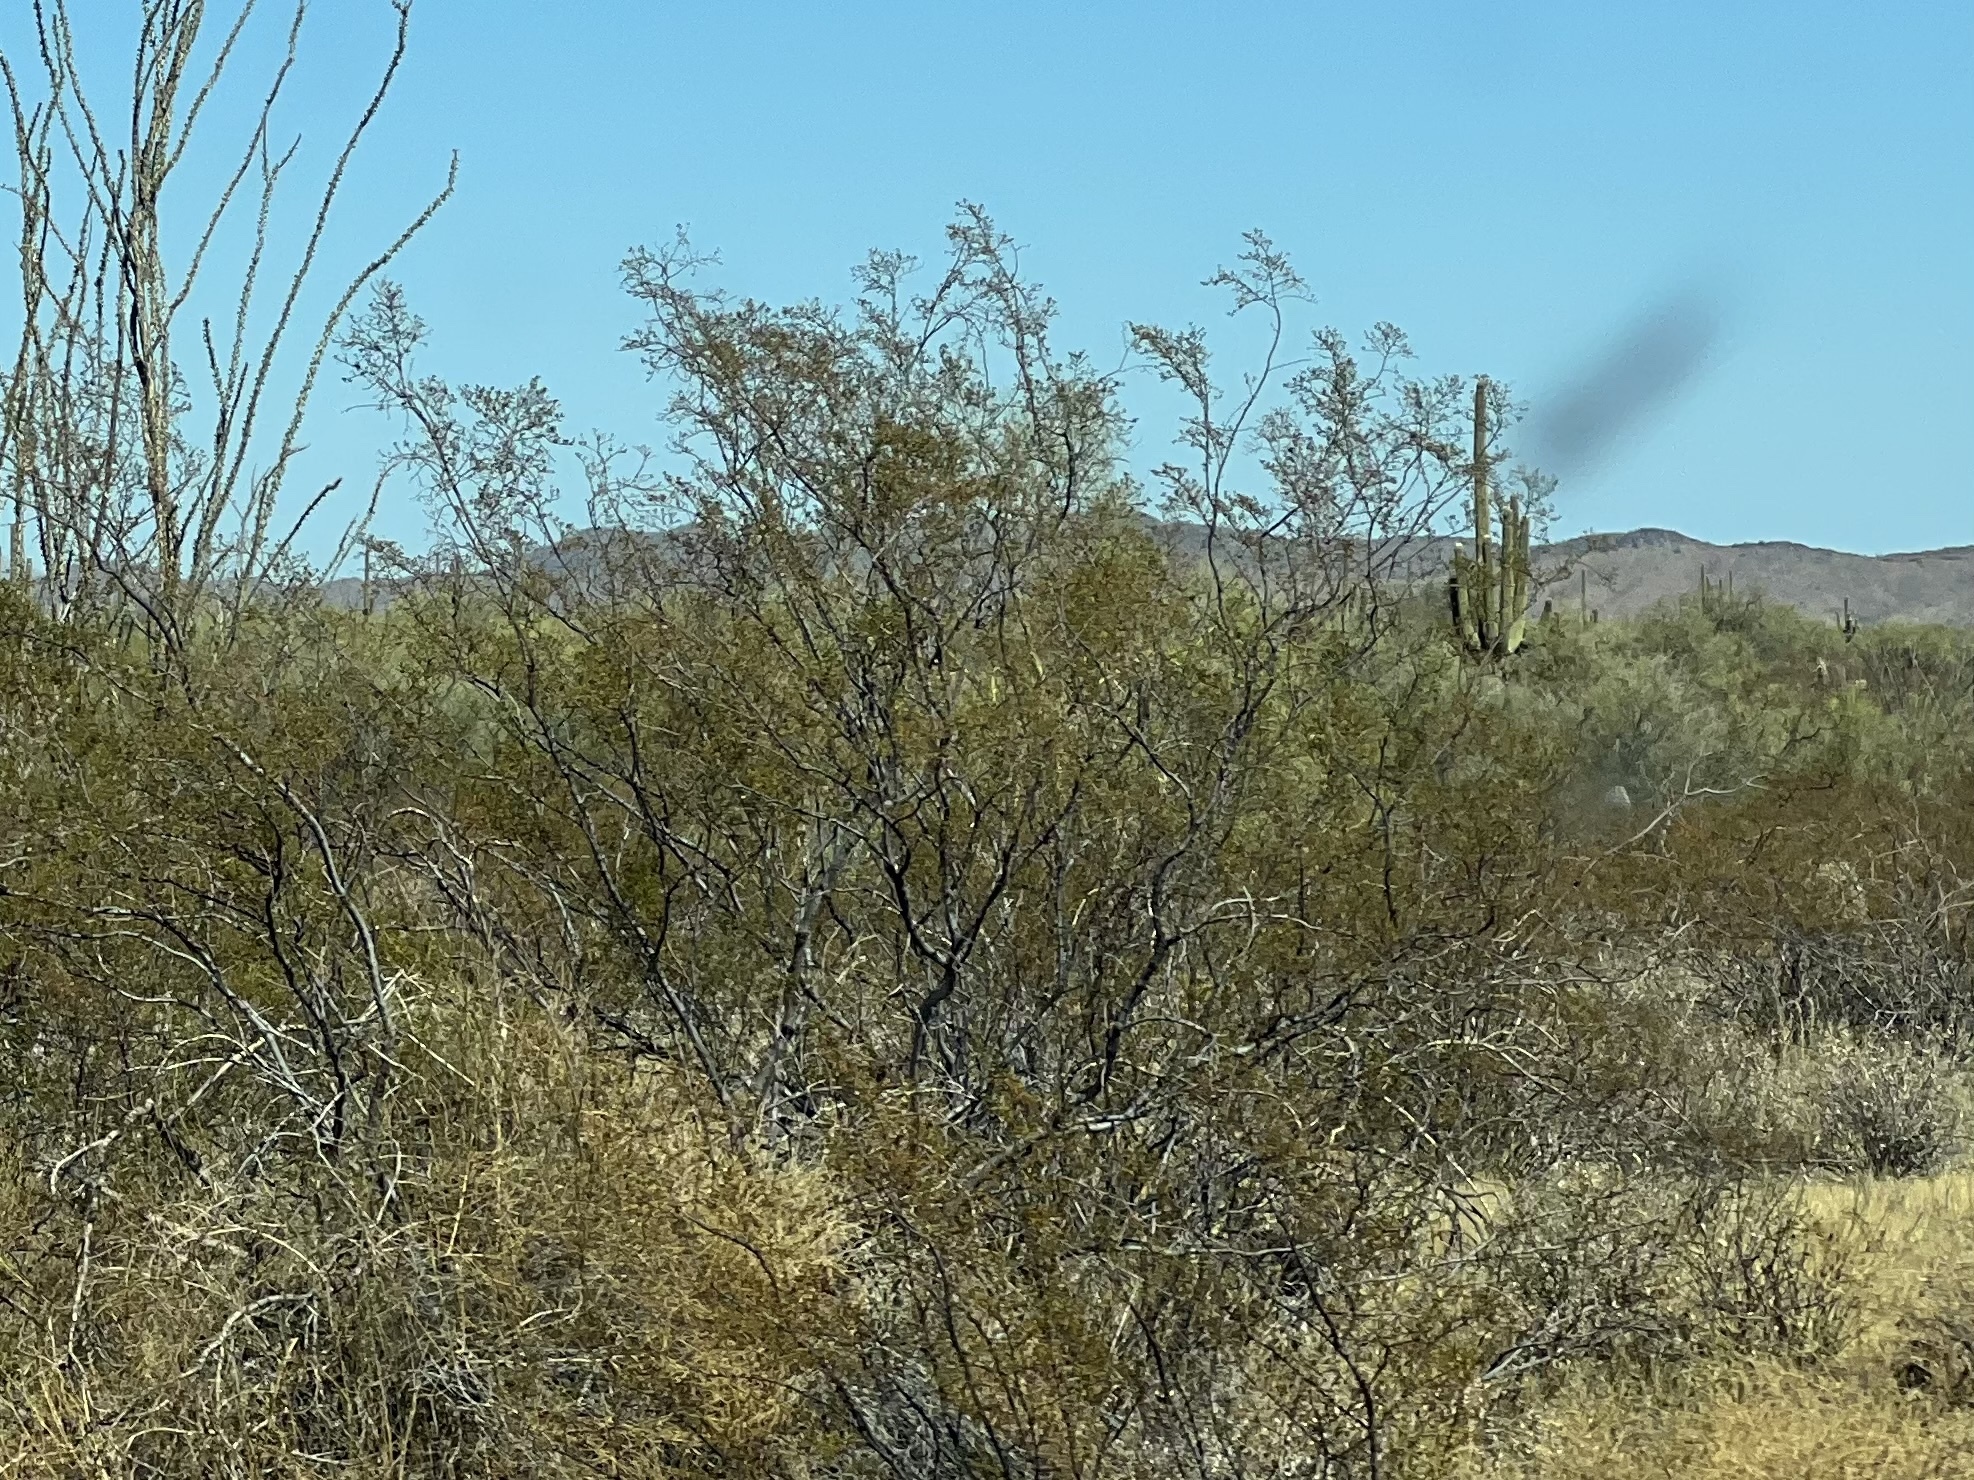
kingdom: Plantae
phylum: Tracheophyta
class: Magnoliopsida
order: Zygophyllales
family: Zygophyllaceae
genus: Larrea
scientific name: Larrea tridentata
